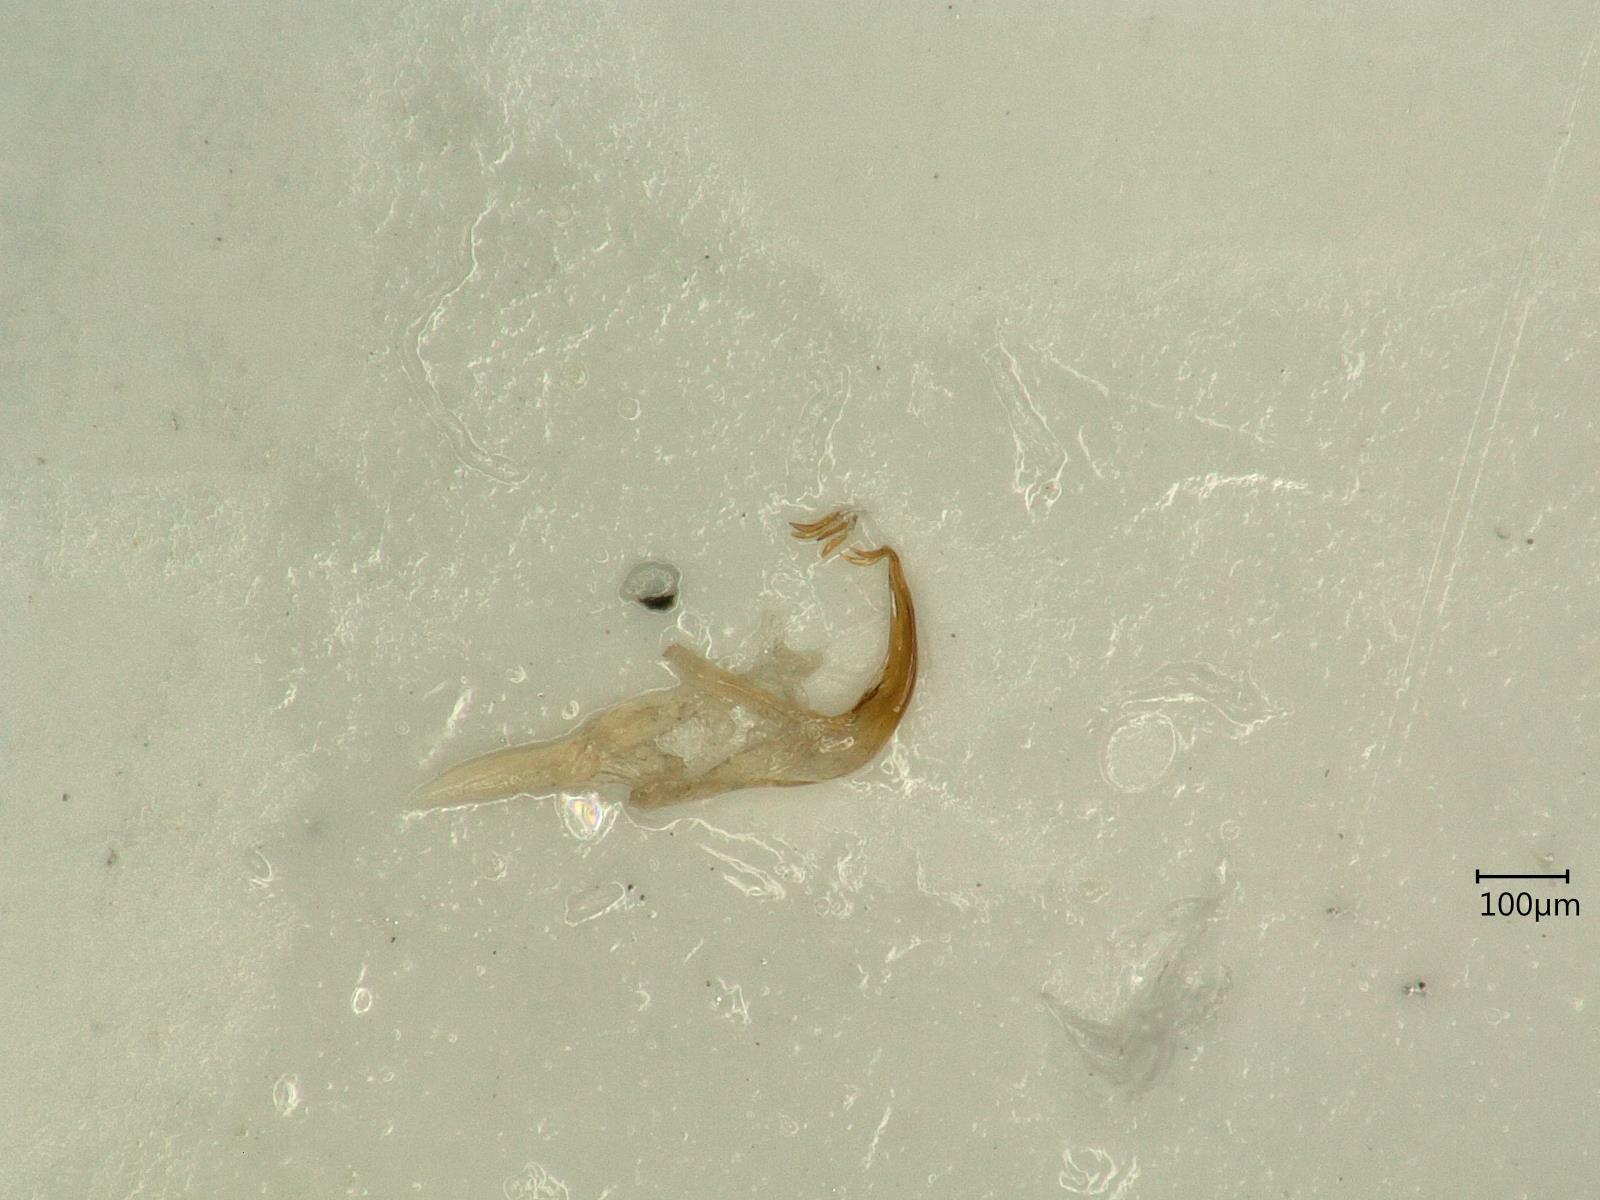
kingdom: Animalia
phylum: Arthropoda
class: Insecta
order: Hemiptera
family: Cicadellidae
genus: Edwardsiana
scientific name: Edwardsiana prunicola
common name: Prune leafhopper
